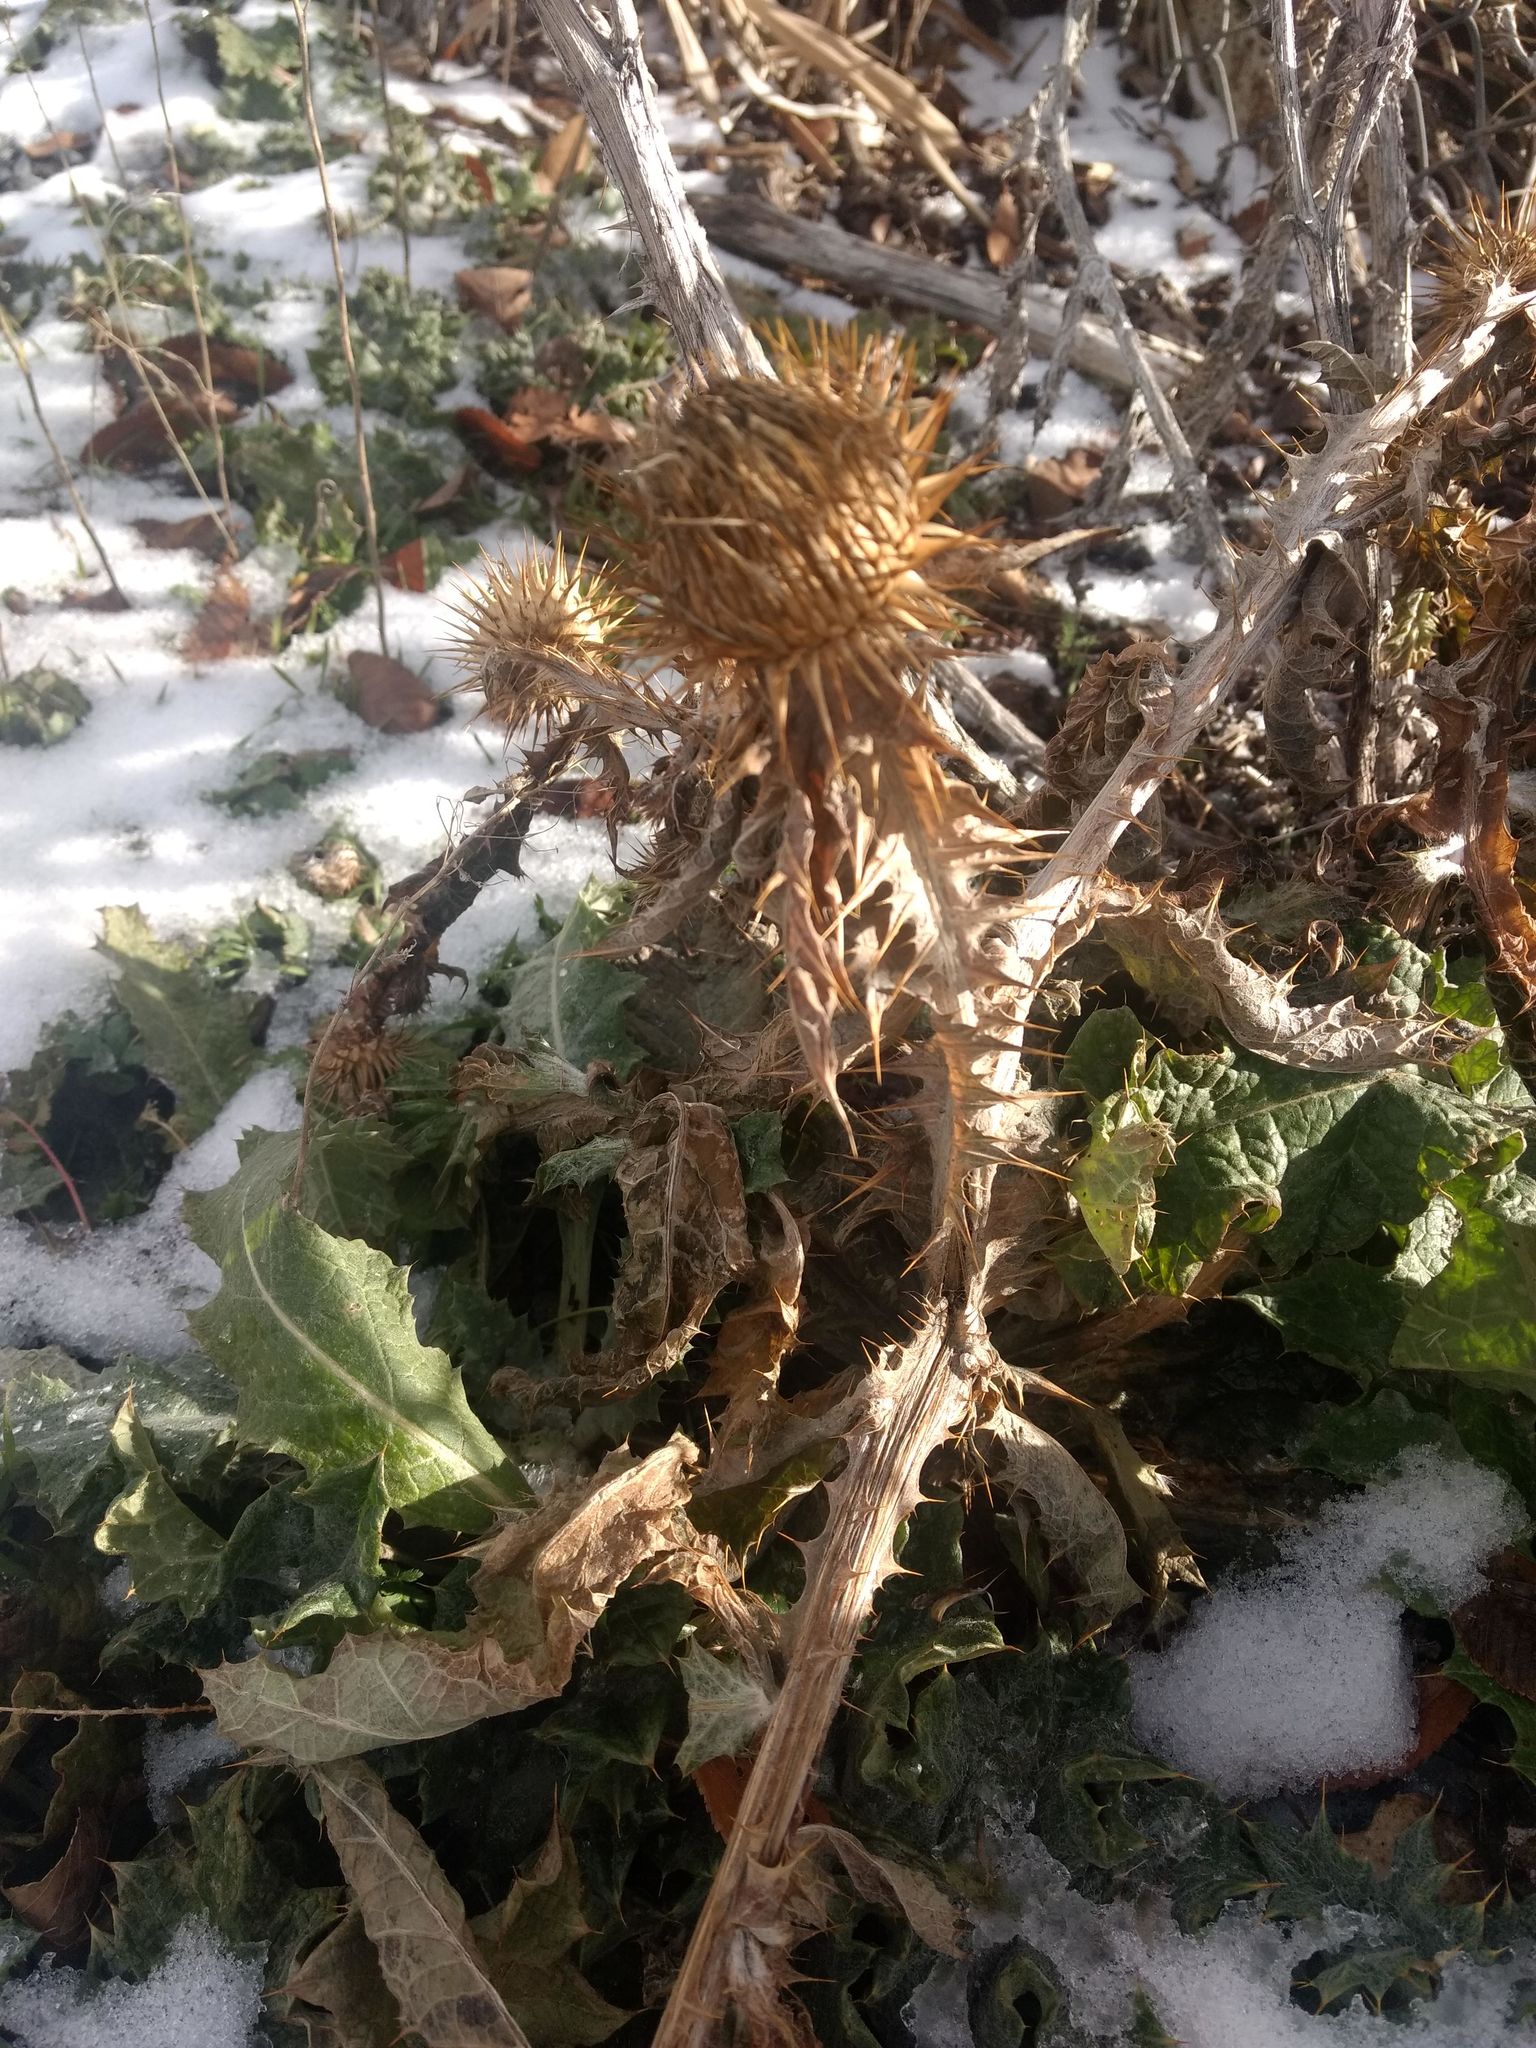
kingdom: Plantae
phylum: Tracheophyta
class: Magnoliopsida
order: Asterales
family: Asteraceae
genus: Onopordum
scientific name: Onopordum acanthium
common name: Scotch thistle
